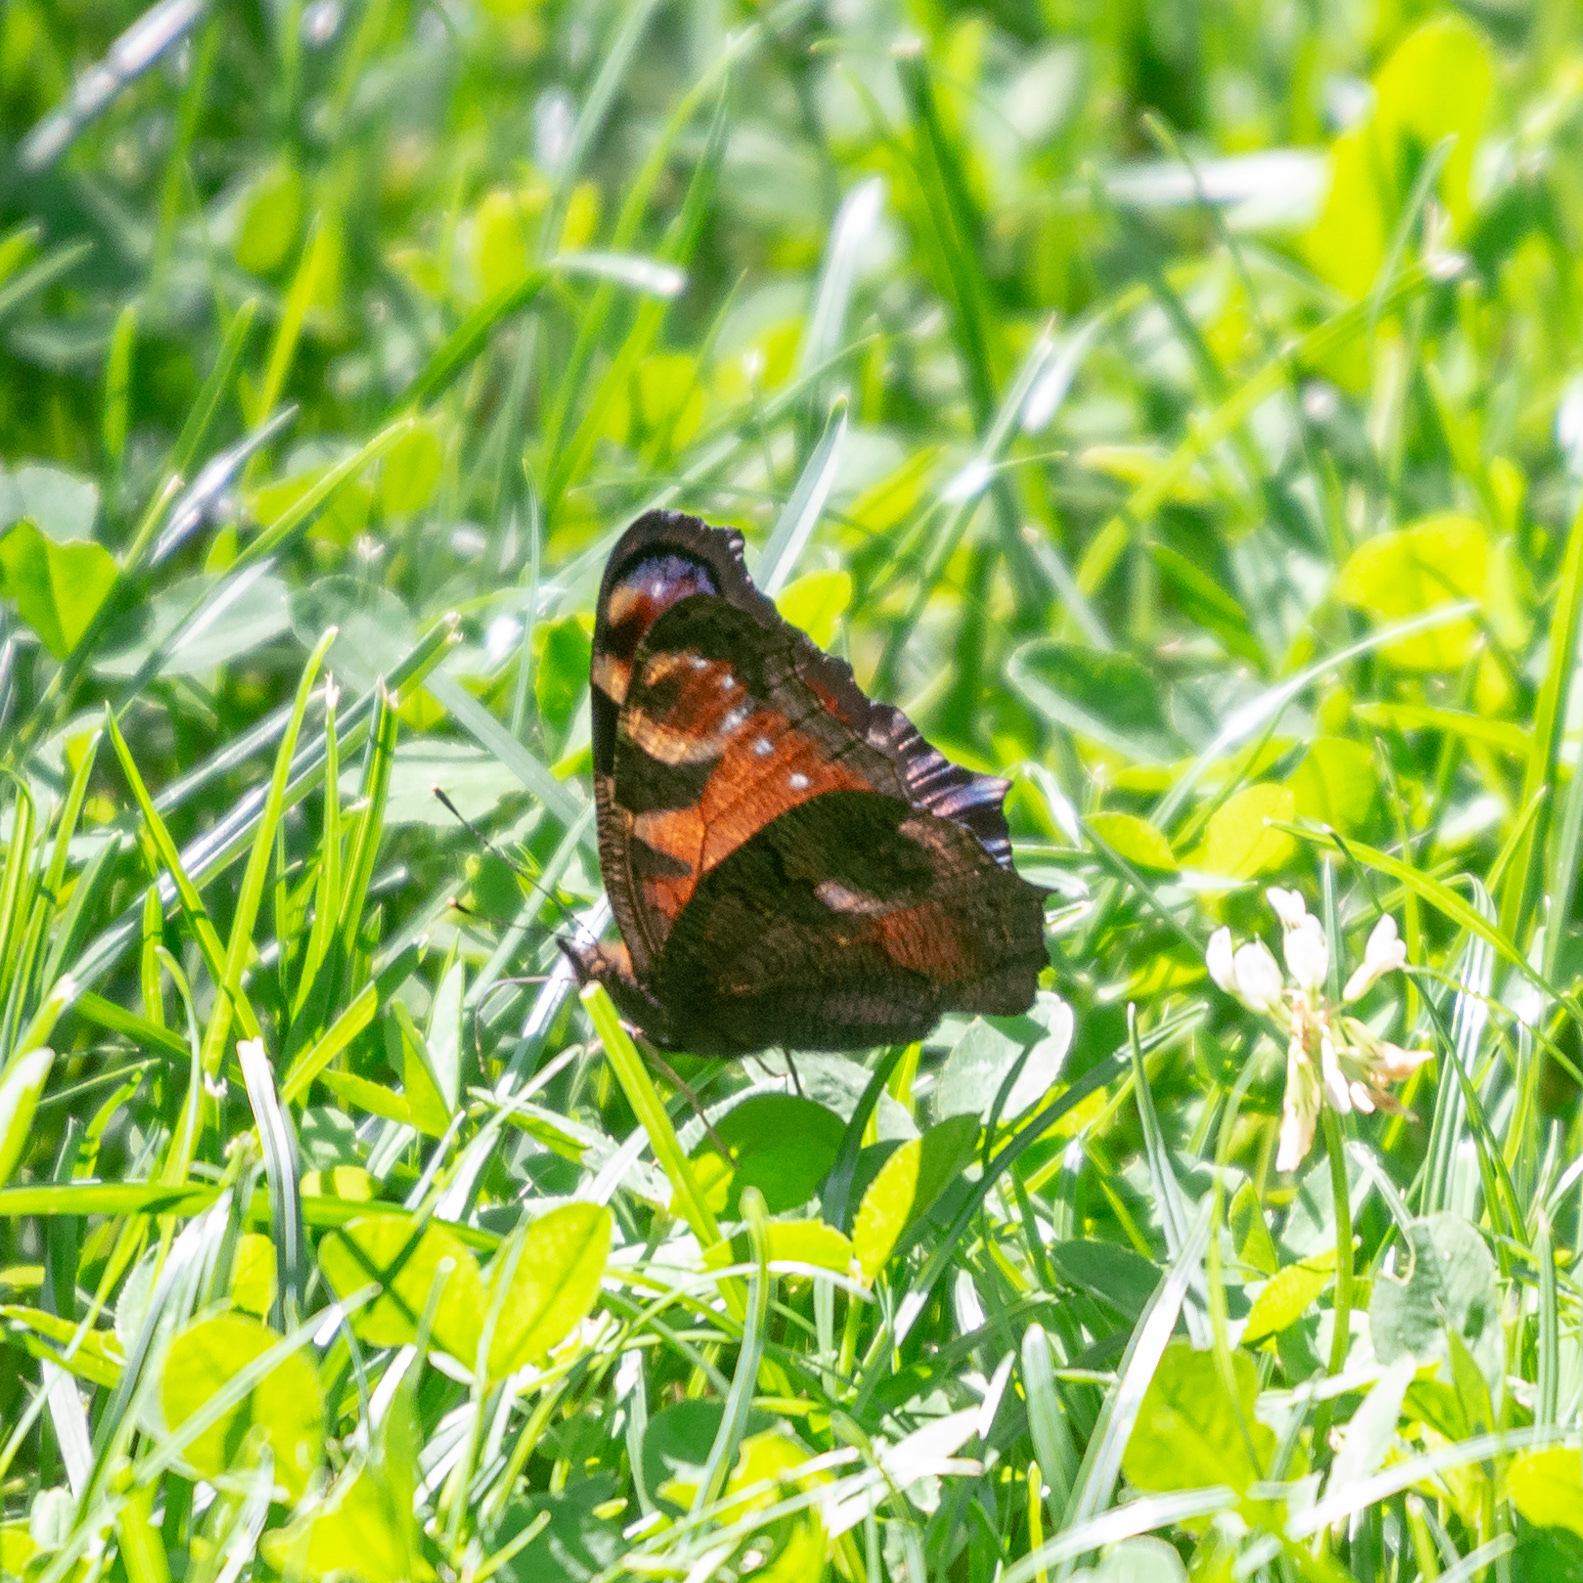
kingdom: Animalia
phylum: Arthropoda
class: Insecta
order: Lepidoptera
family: Nymphalidae
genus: Aglais
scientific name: Aglais io
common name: Peacock
